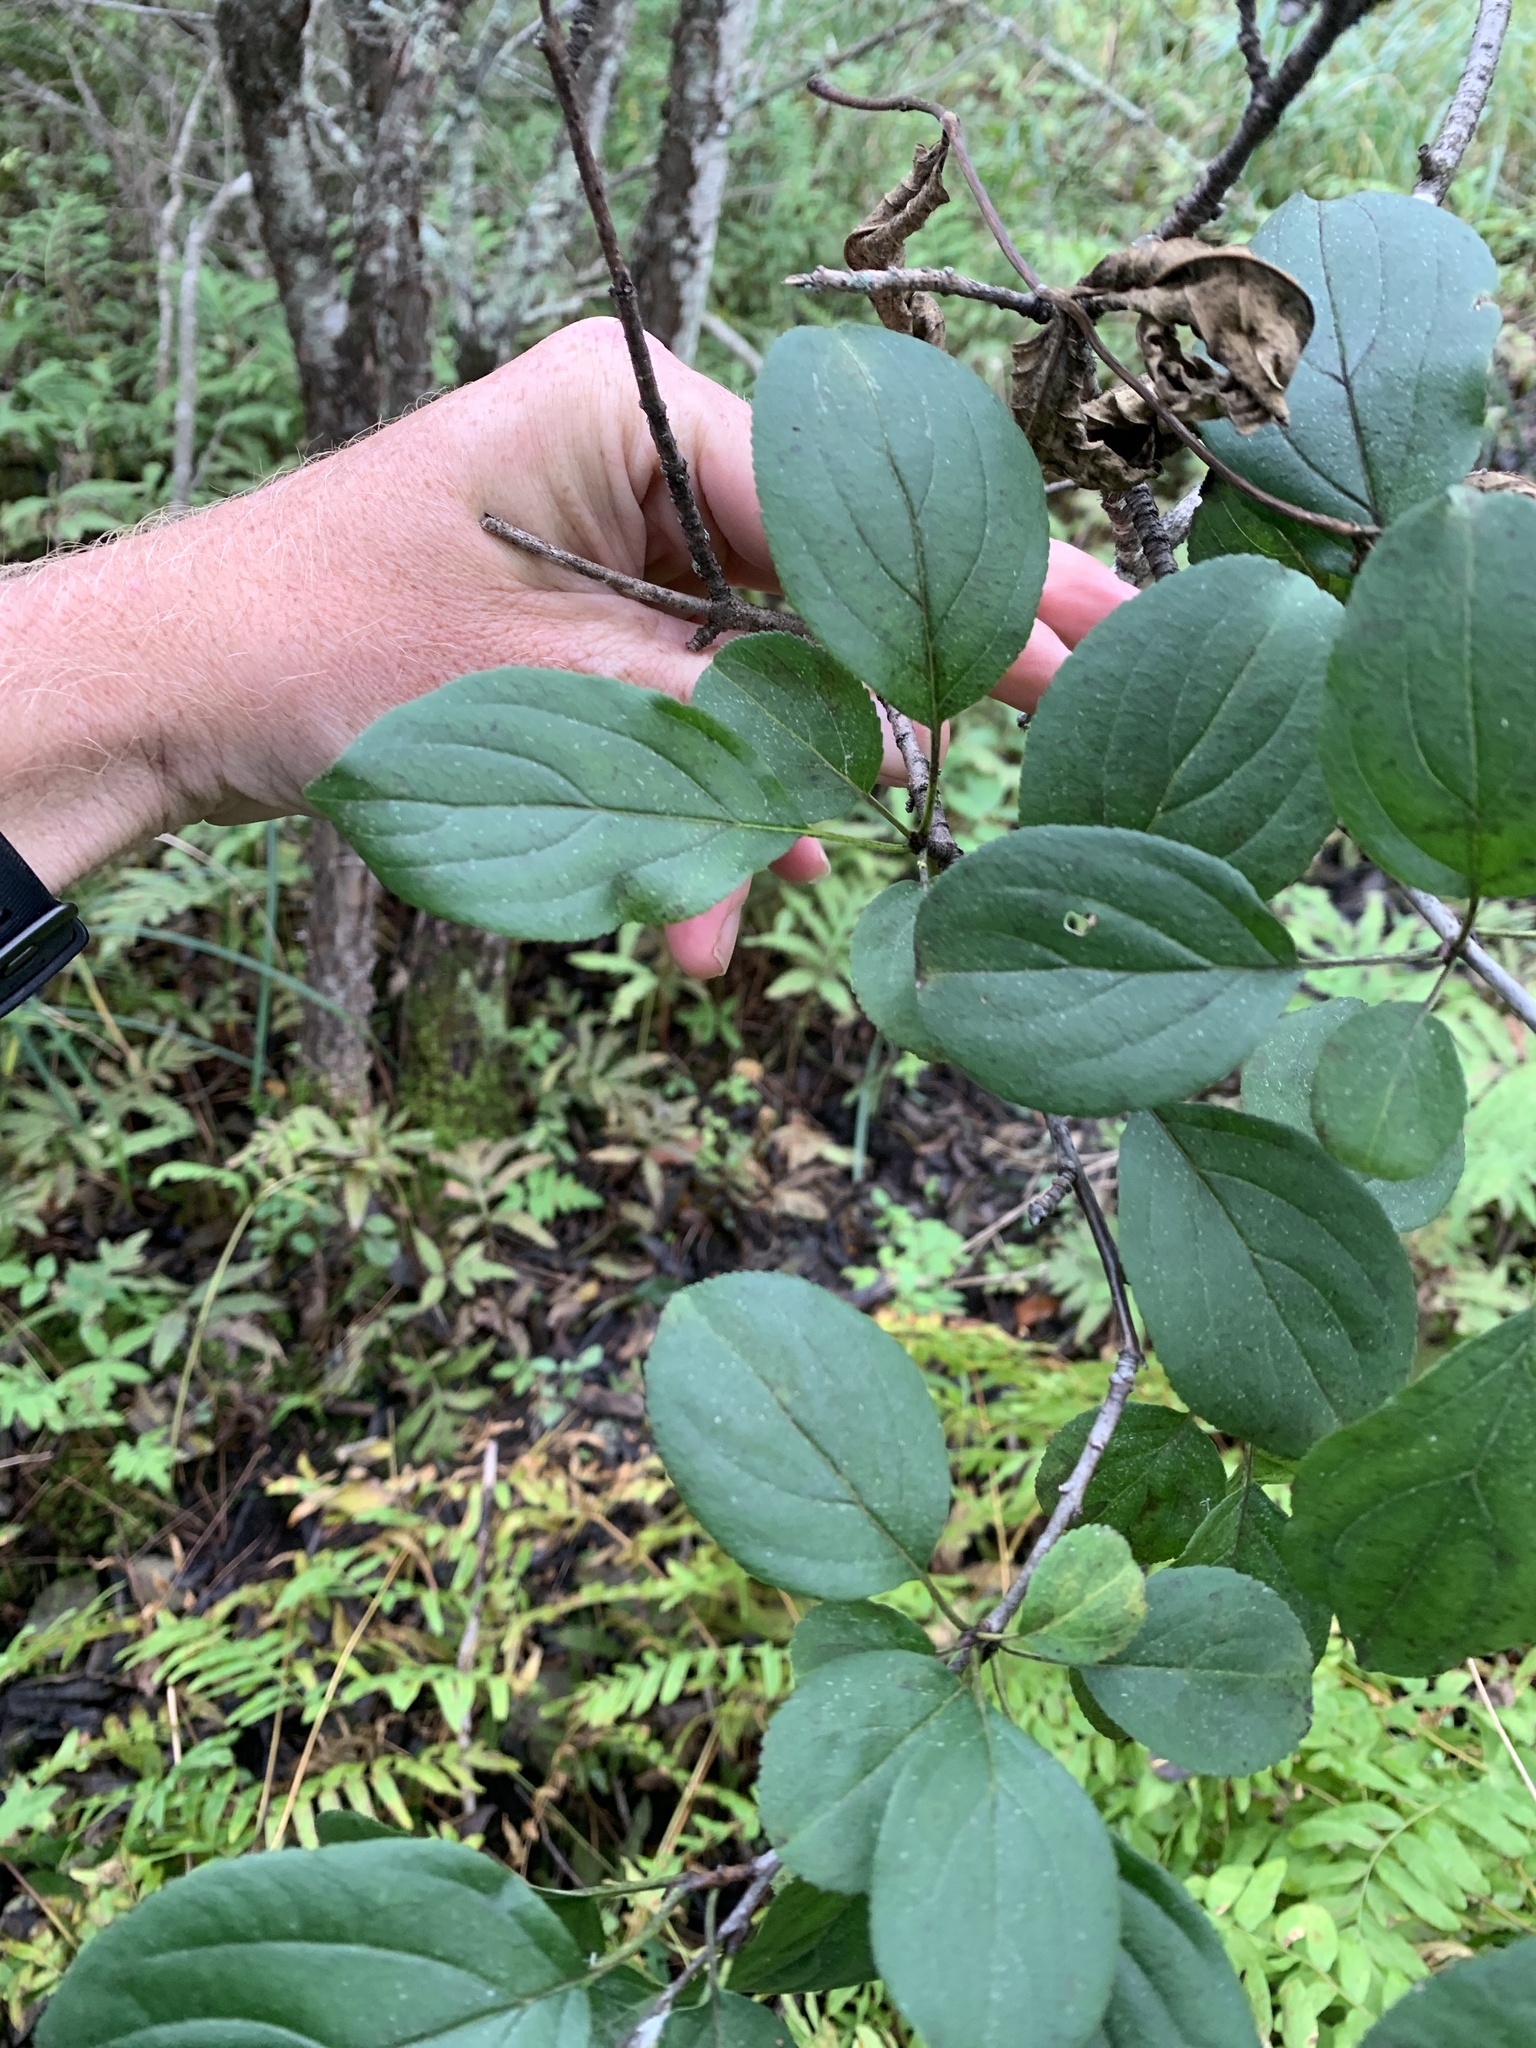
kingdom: Plantae
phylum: Tracheophyta
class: Magnoliopsida
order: Rosales
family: Rhamnaceae
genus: Rhamnus
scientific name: Rhamnus cathartica
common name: Common buckthorn
